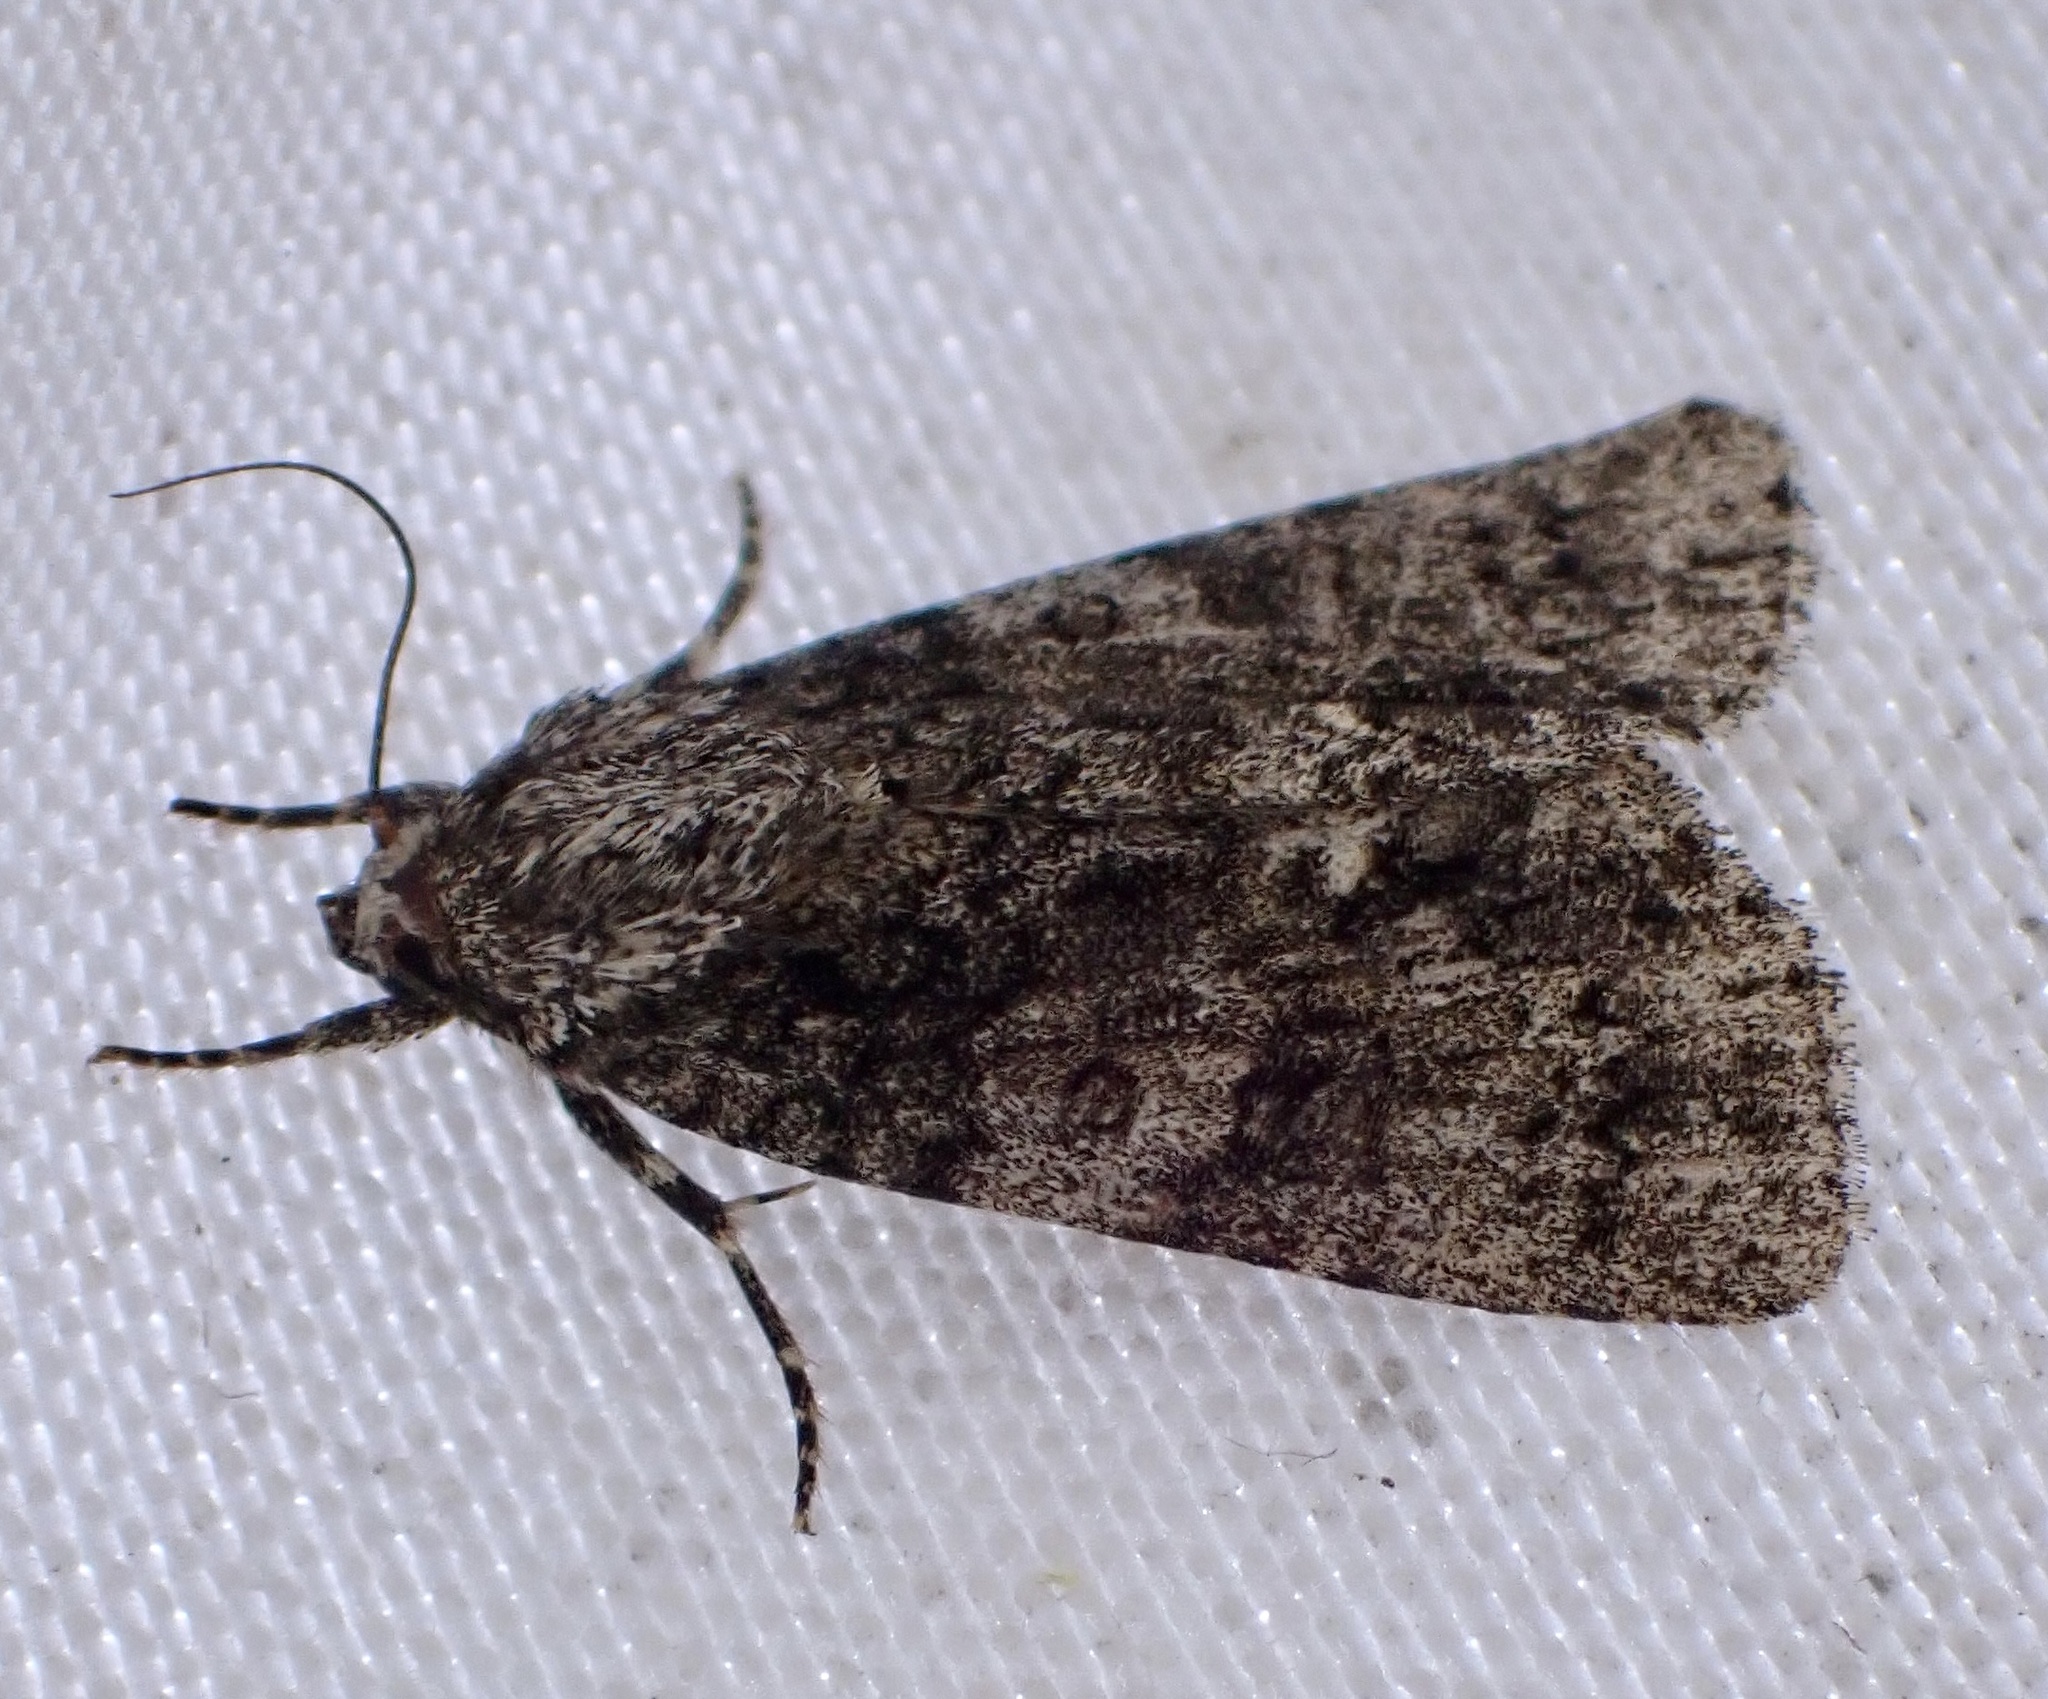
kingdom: Animalia
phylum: Arthropoda
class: Insecta
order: Lepidoptera
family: Noctuidae
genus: Acronicta
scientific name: Acronicta rumicis
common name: Knot grass
